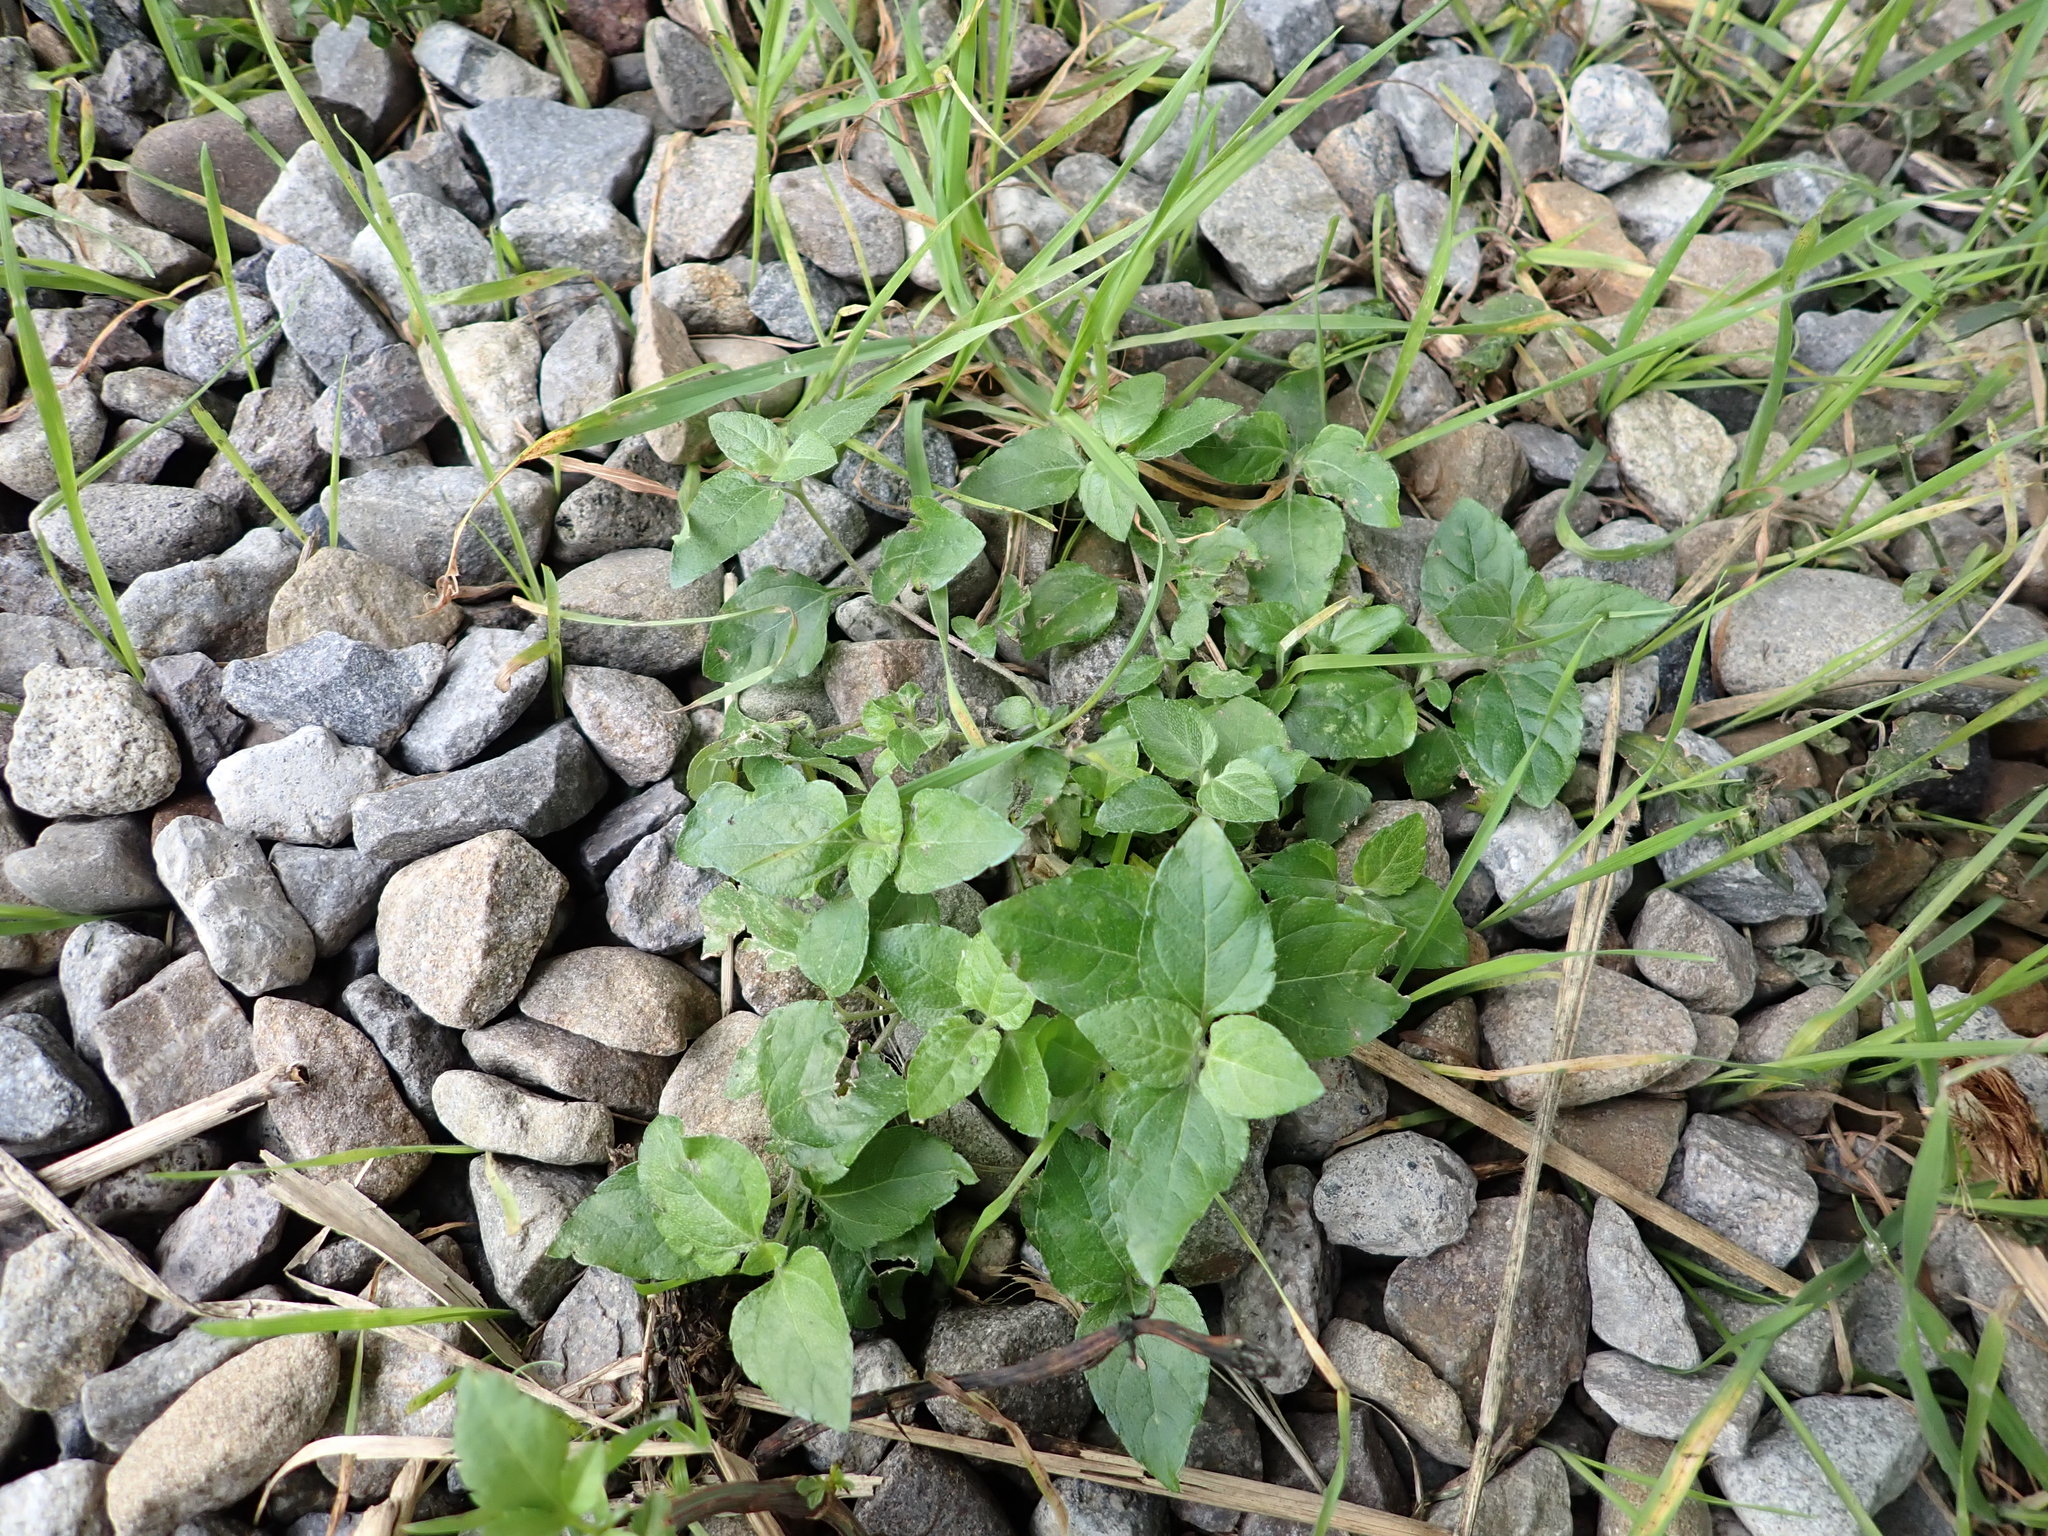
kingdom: Plantae
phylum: Tracheophyta
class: Magnoliopsida
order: Asterales
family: Asteraceae
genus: Calyptocarpus
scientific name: Calyptocarpus vialis
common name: Straggler daisy
